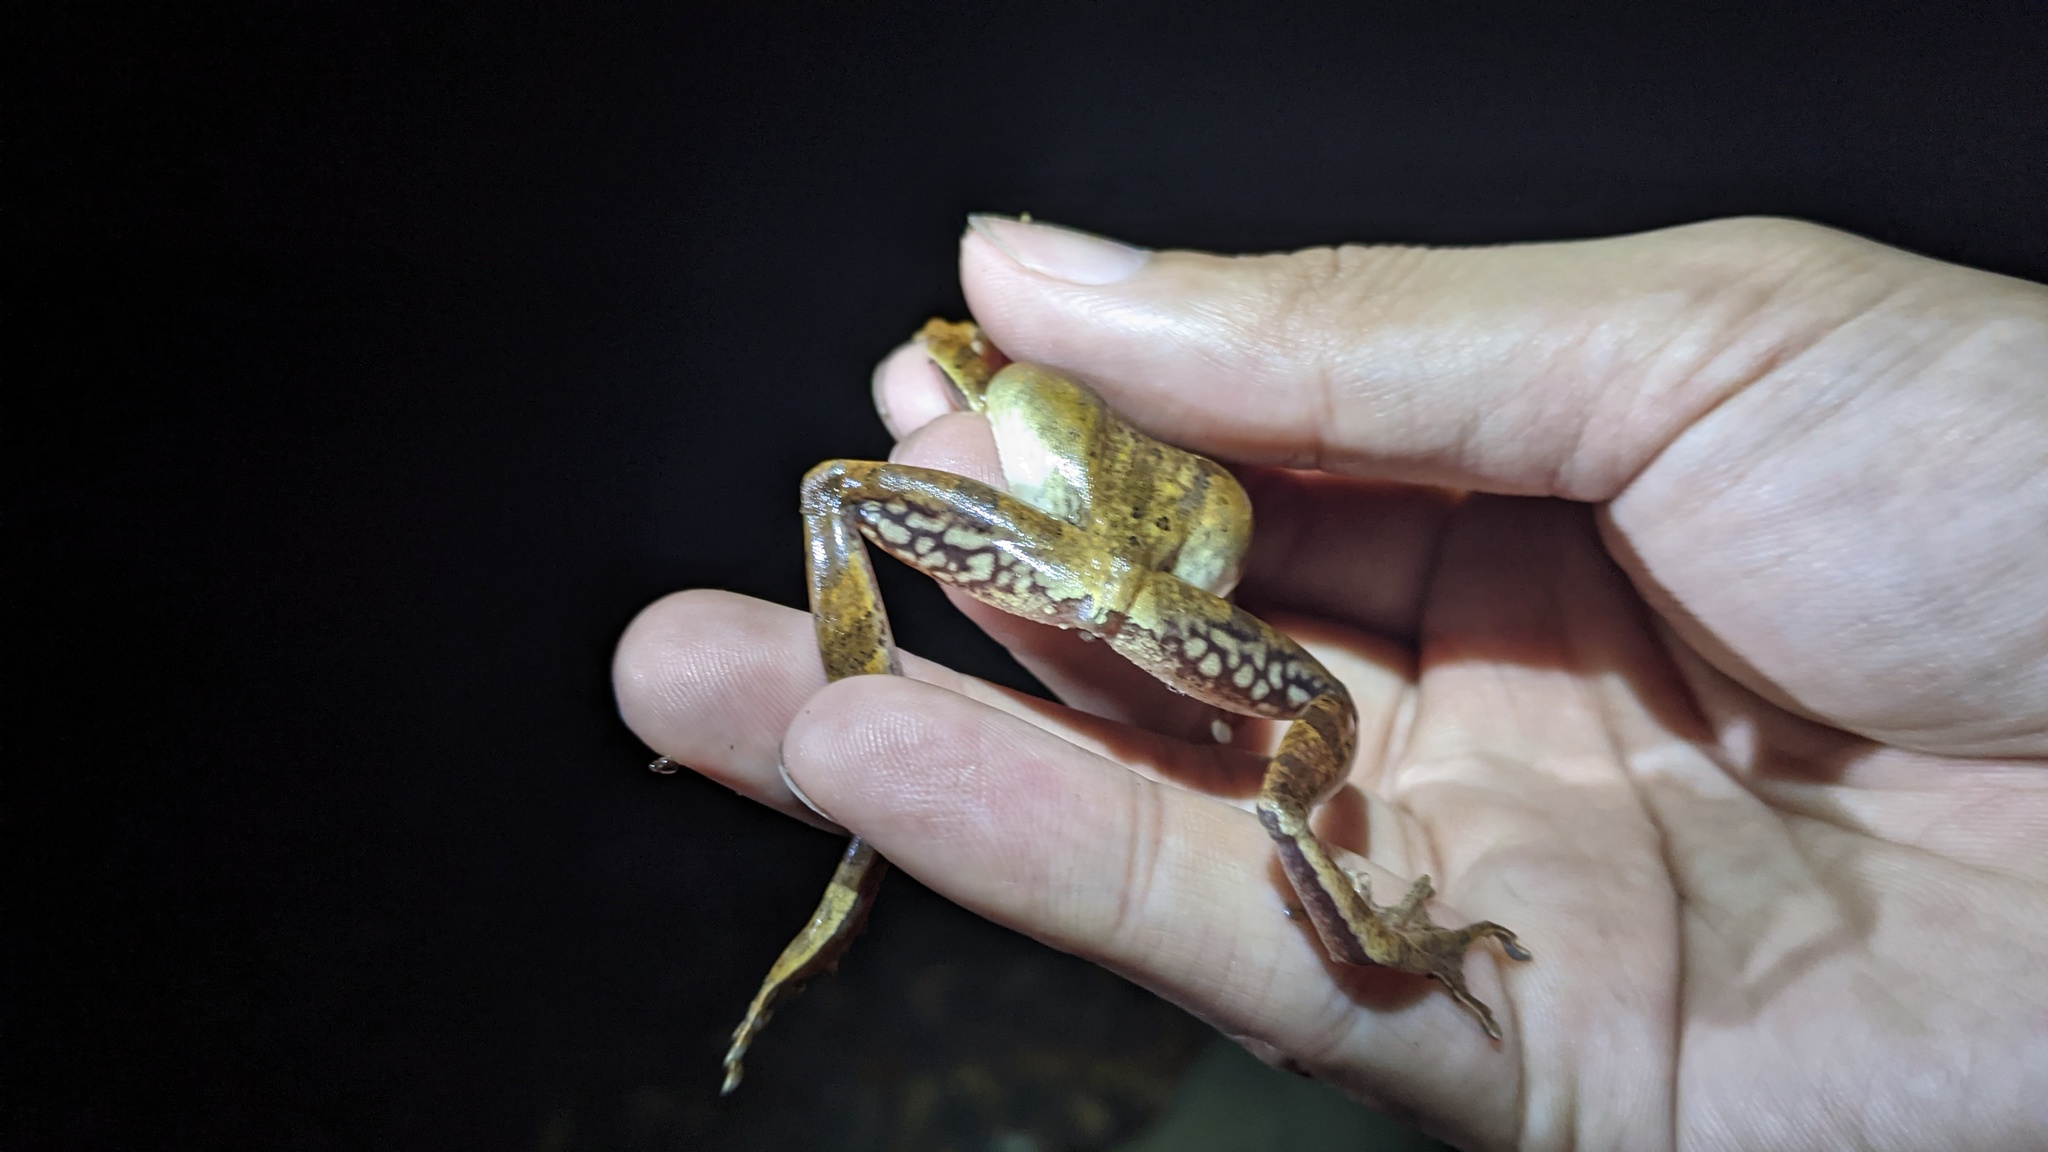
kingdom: Animalia
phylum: Chordata
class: Amphibia
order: Anura
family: Rhacophoridae
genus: Polypedates
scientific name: Polypedates braueri
